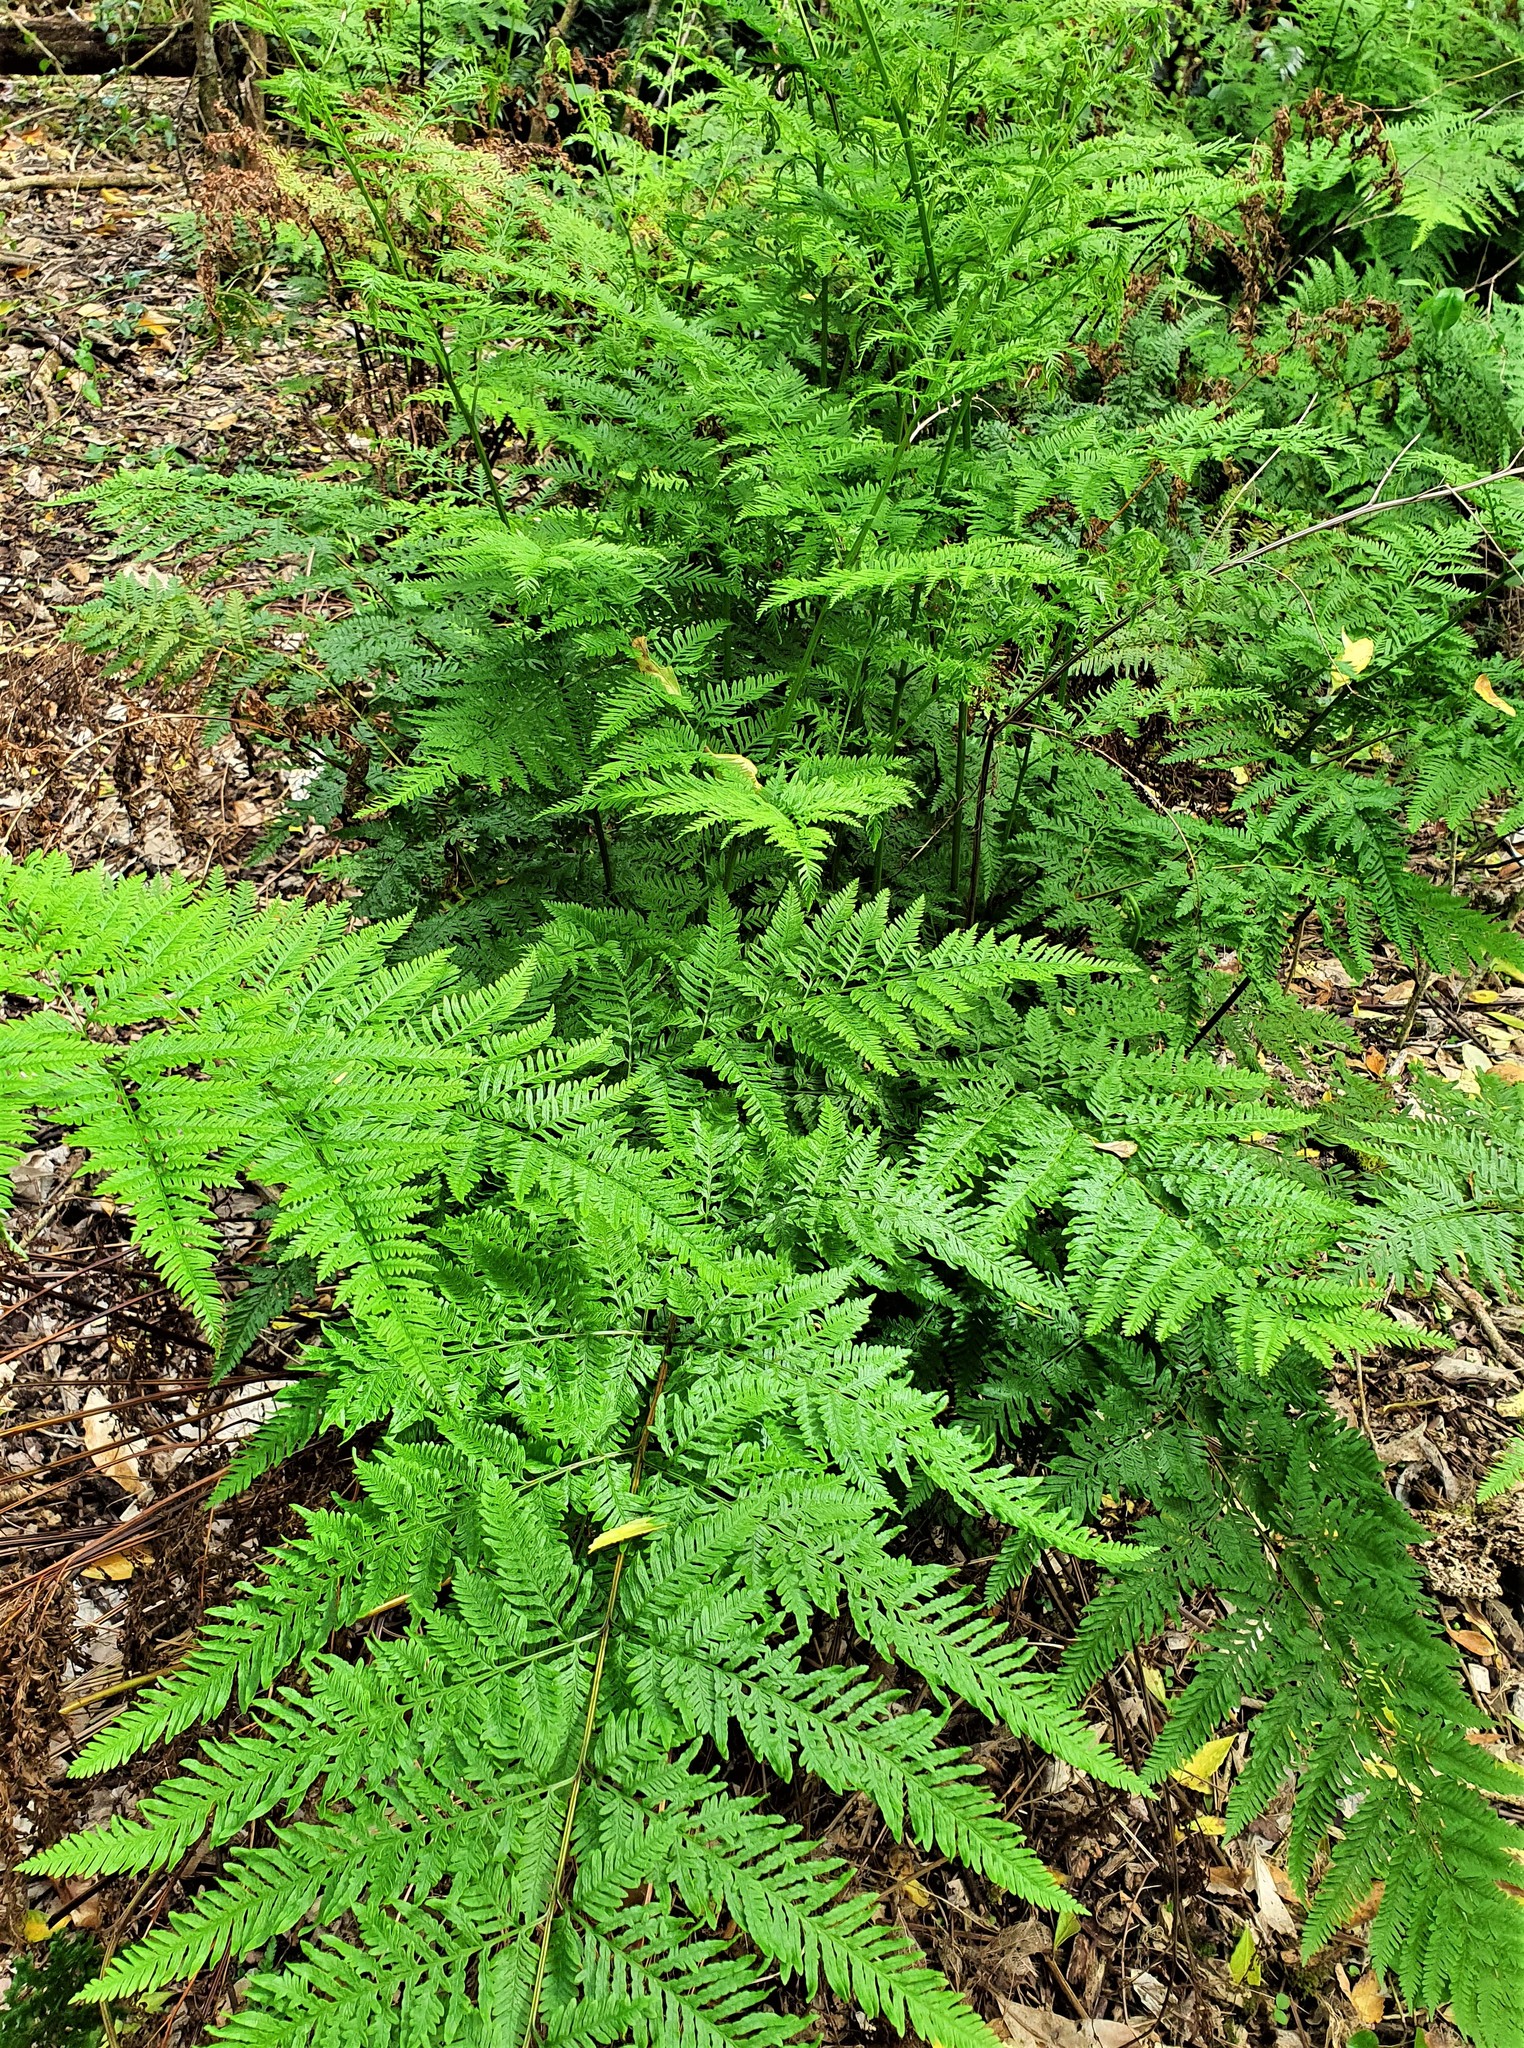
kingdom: Plantae
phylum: Tracheophyta
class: Polypodiopsida
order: Polypodiales
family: Pteridaceae
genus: Pteris
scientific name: Pteris tremula
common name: Australian brake
